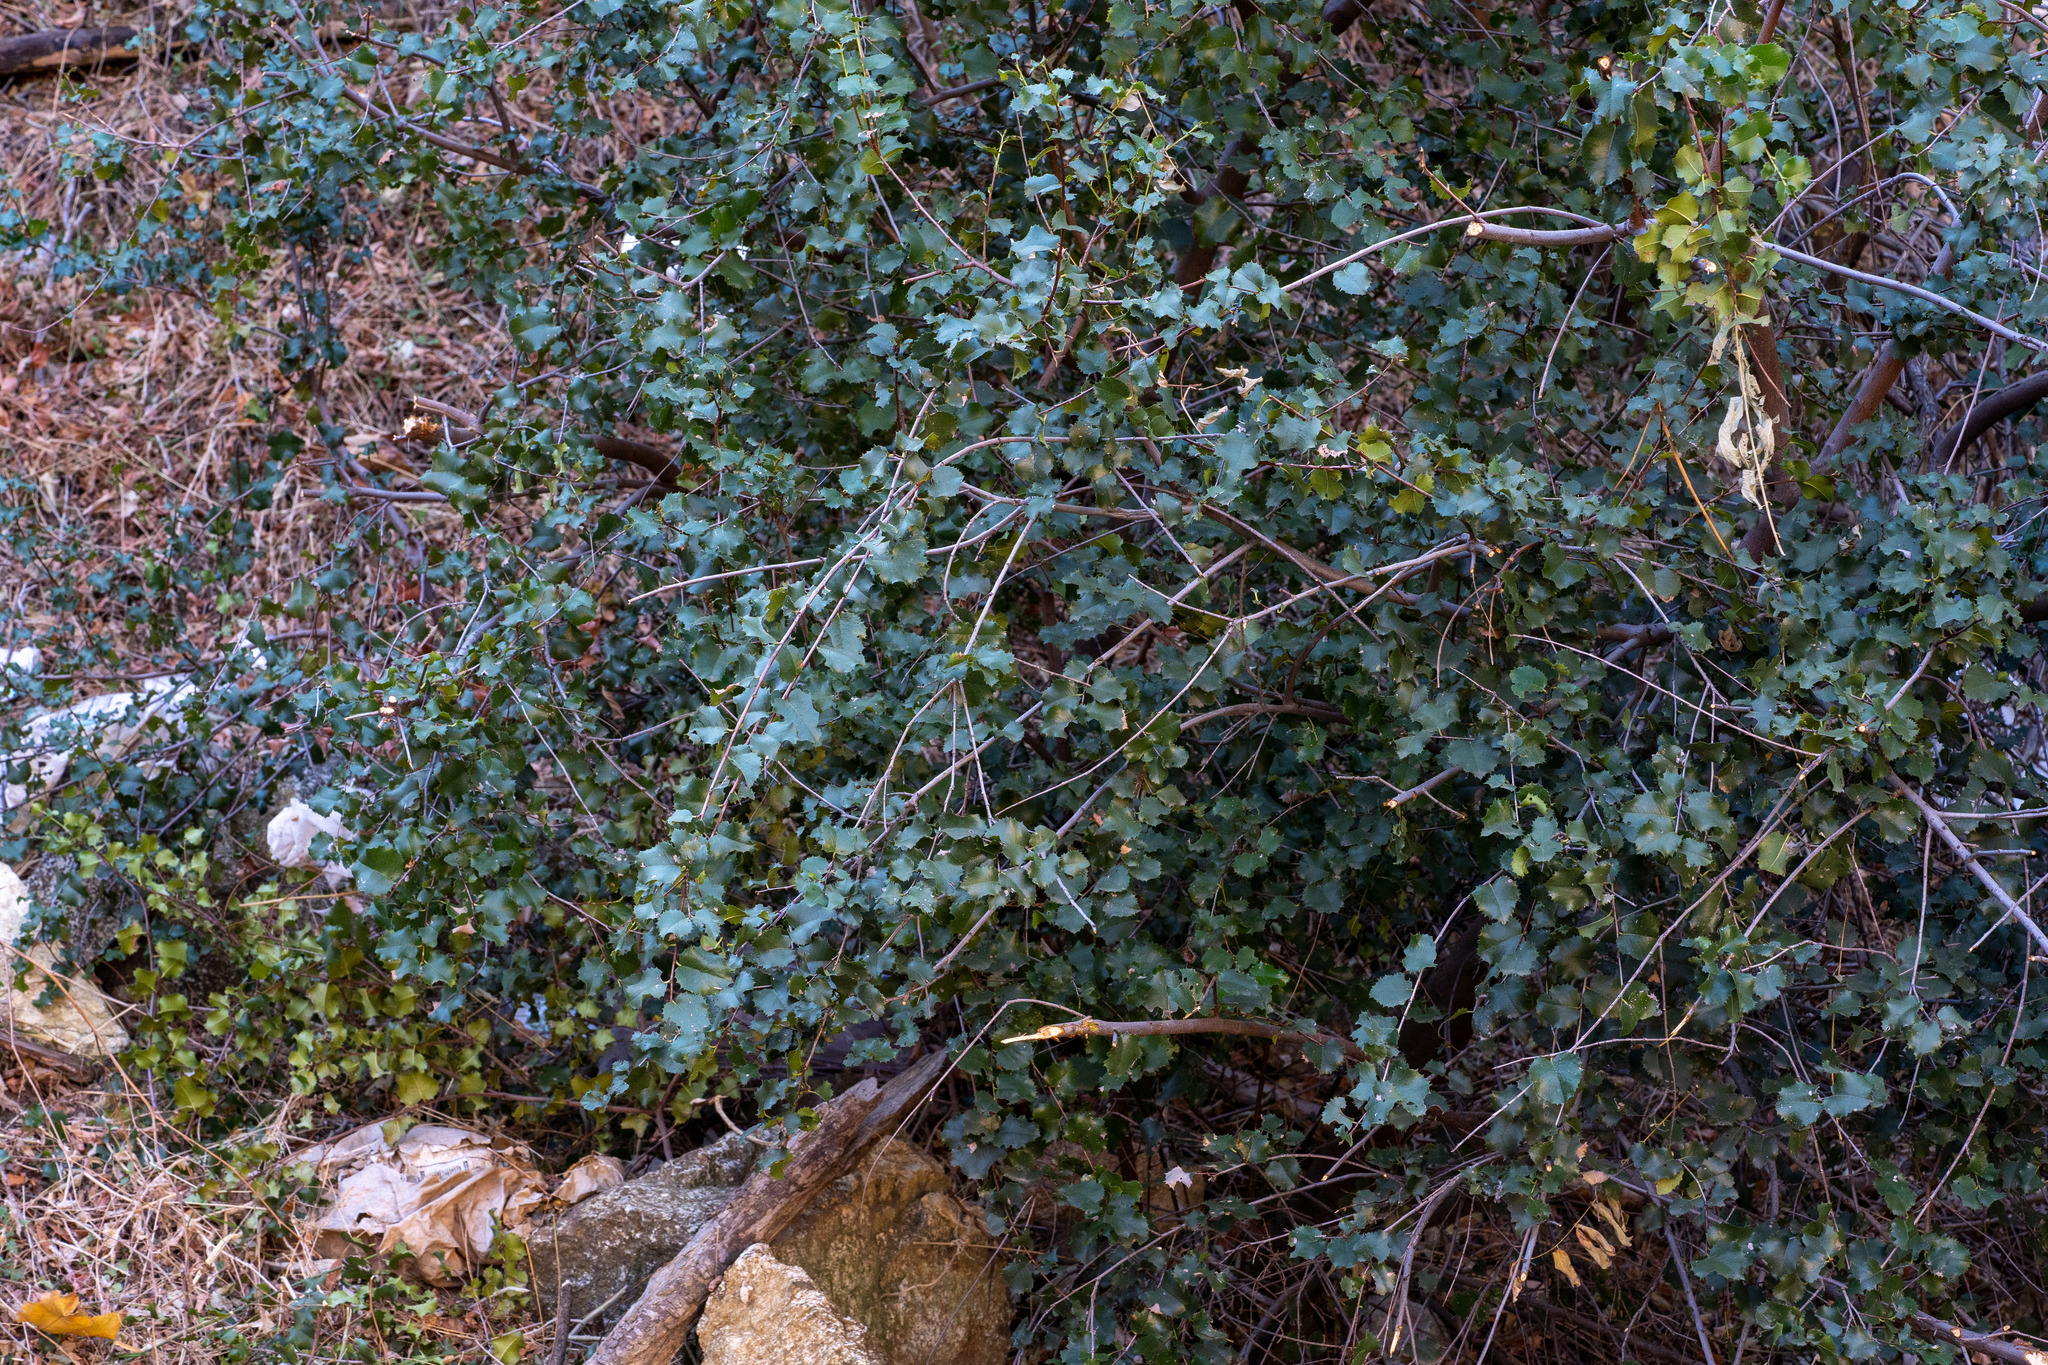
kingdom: Plantae
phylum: Tracheophyta
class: Magnoliopsida
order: Rosales
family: Rosaceae
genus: Prunus
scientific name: Prunus ilicifolia
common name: Hollyleaf cherry
